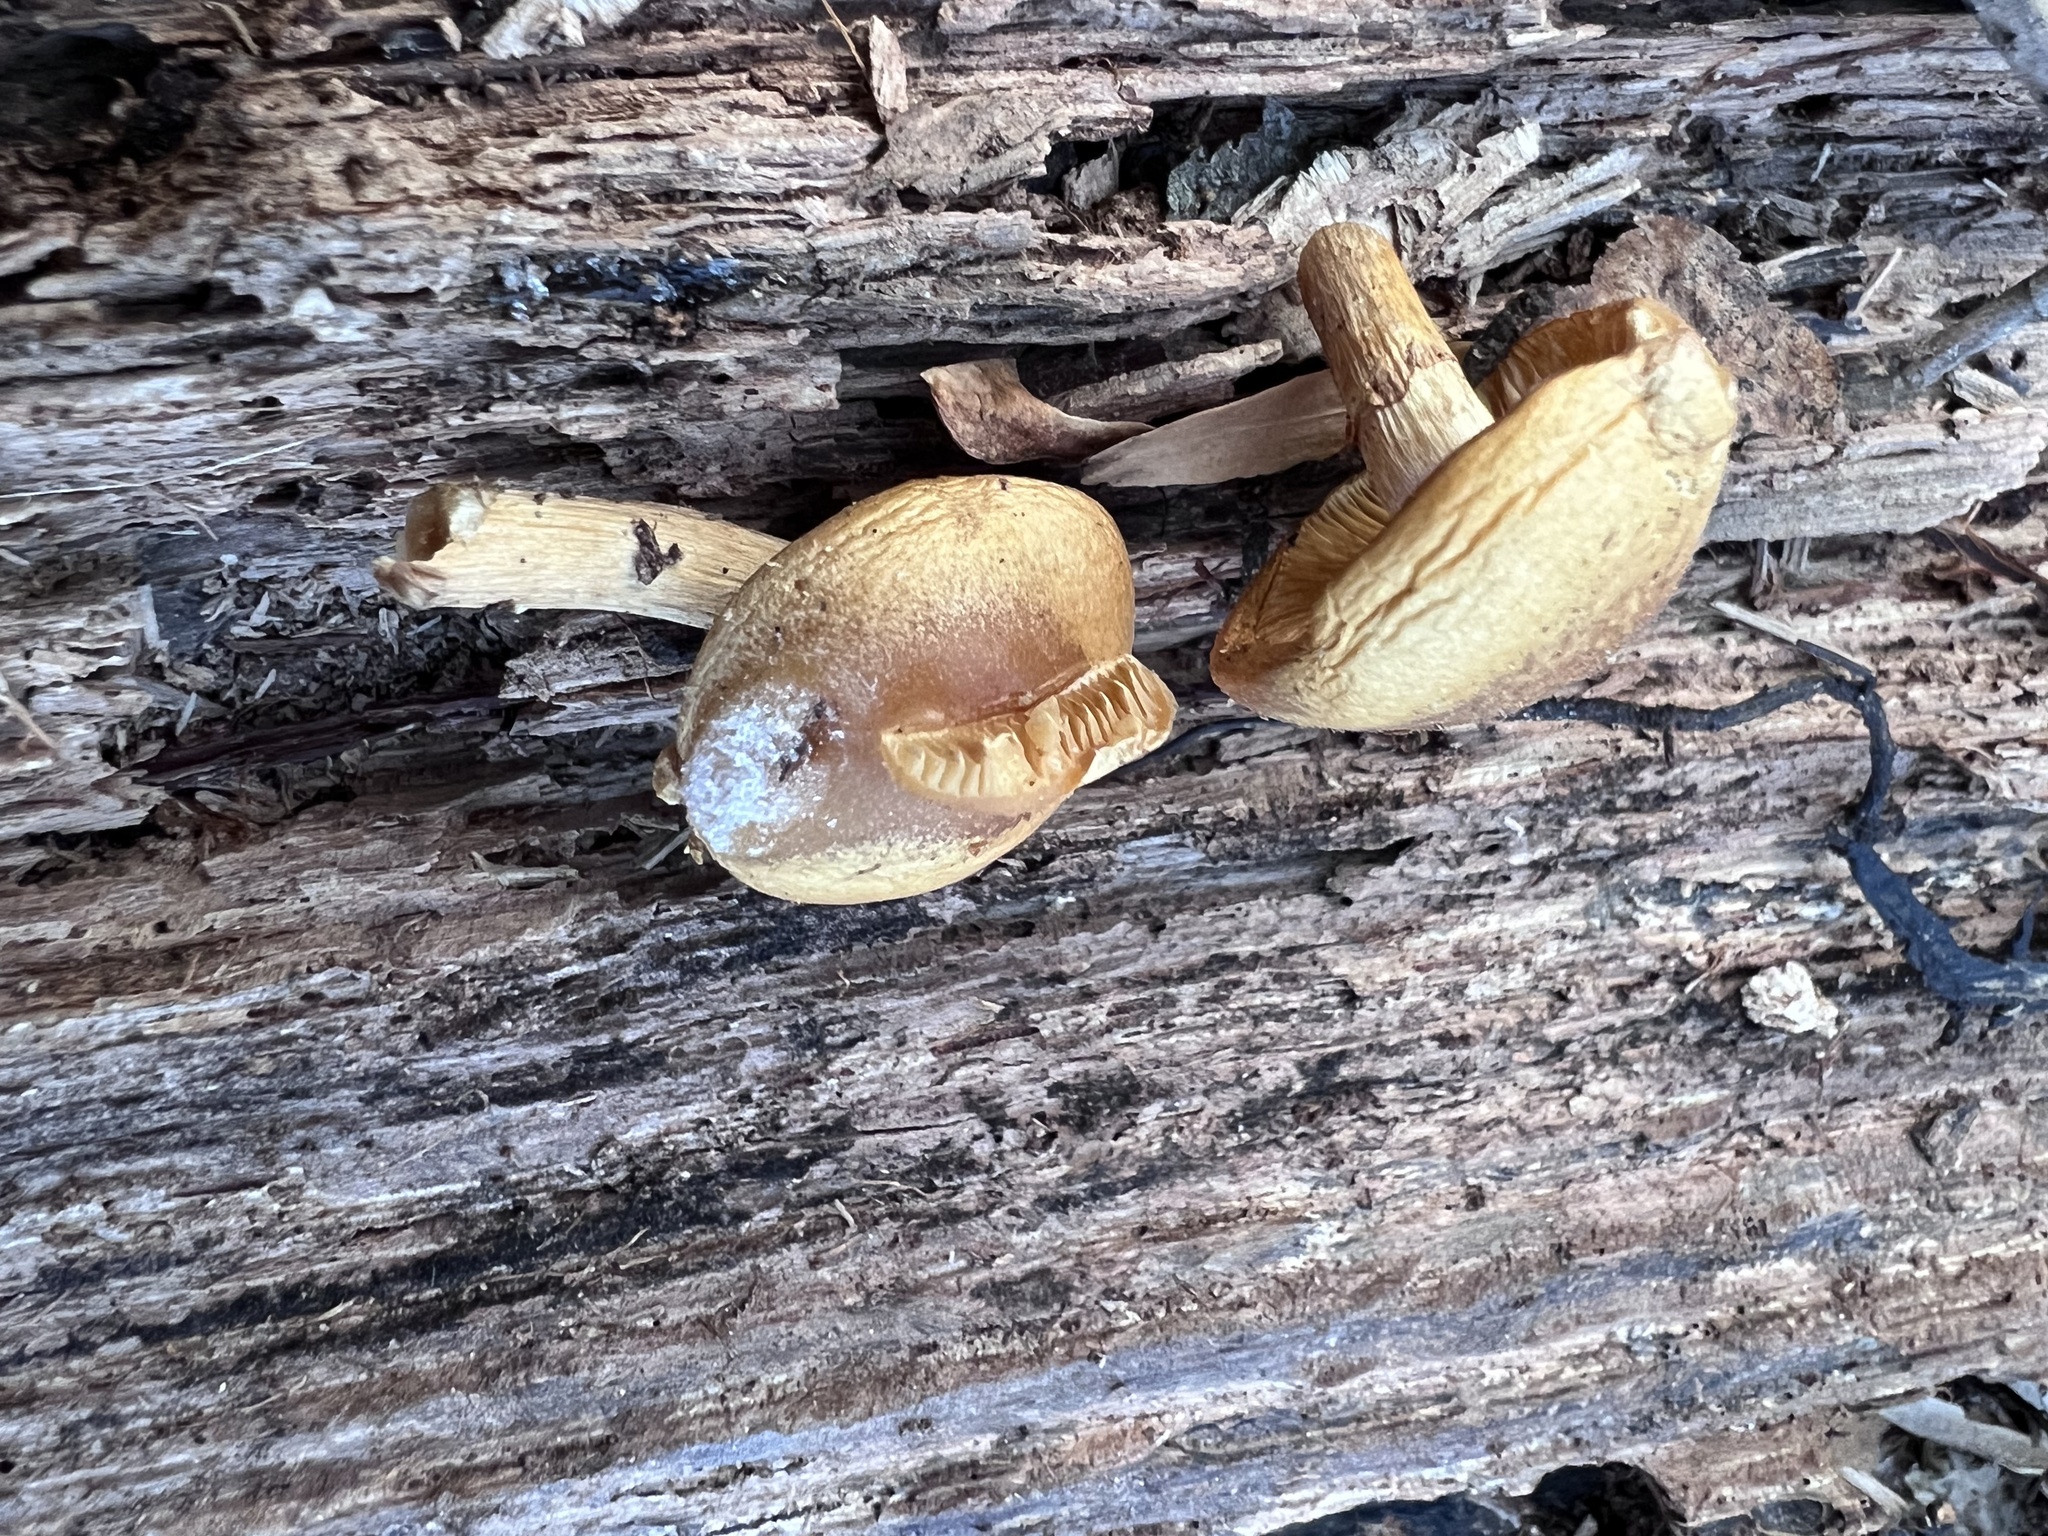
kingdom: Fungi
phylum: Basidiomycota
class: Agaricomycetes
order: Agaricales
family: Hymenogastraceae
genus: Galerina
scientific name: Galerina marginata
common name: Funeral bell
